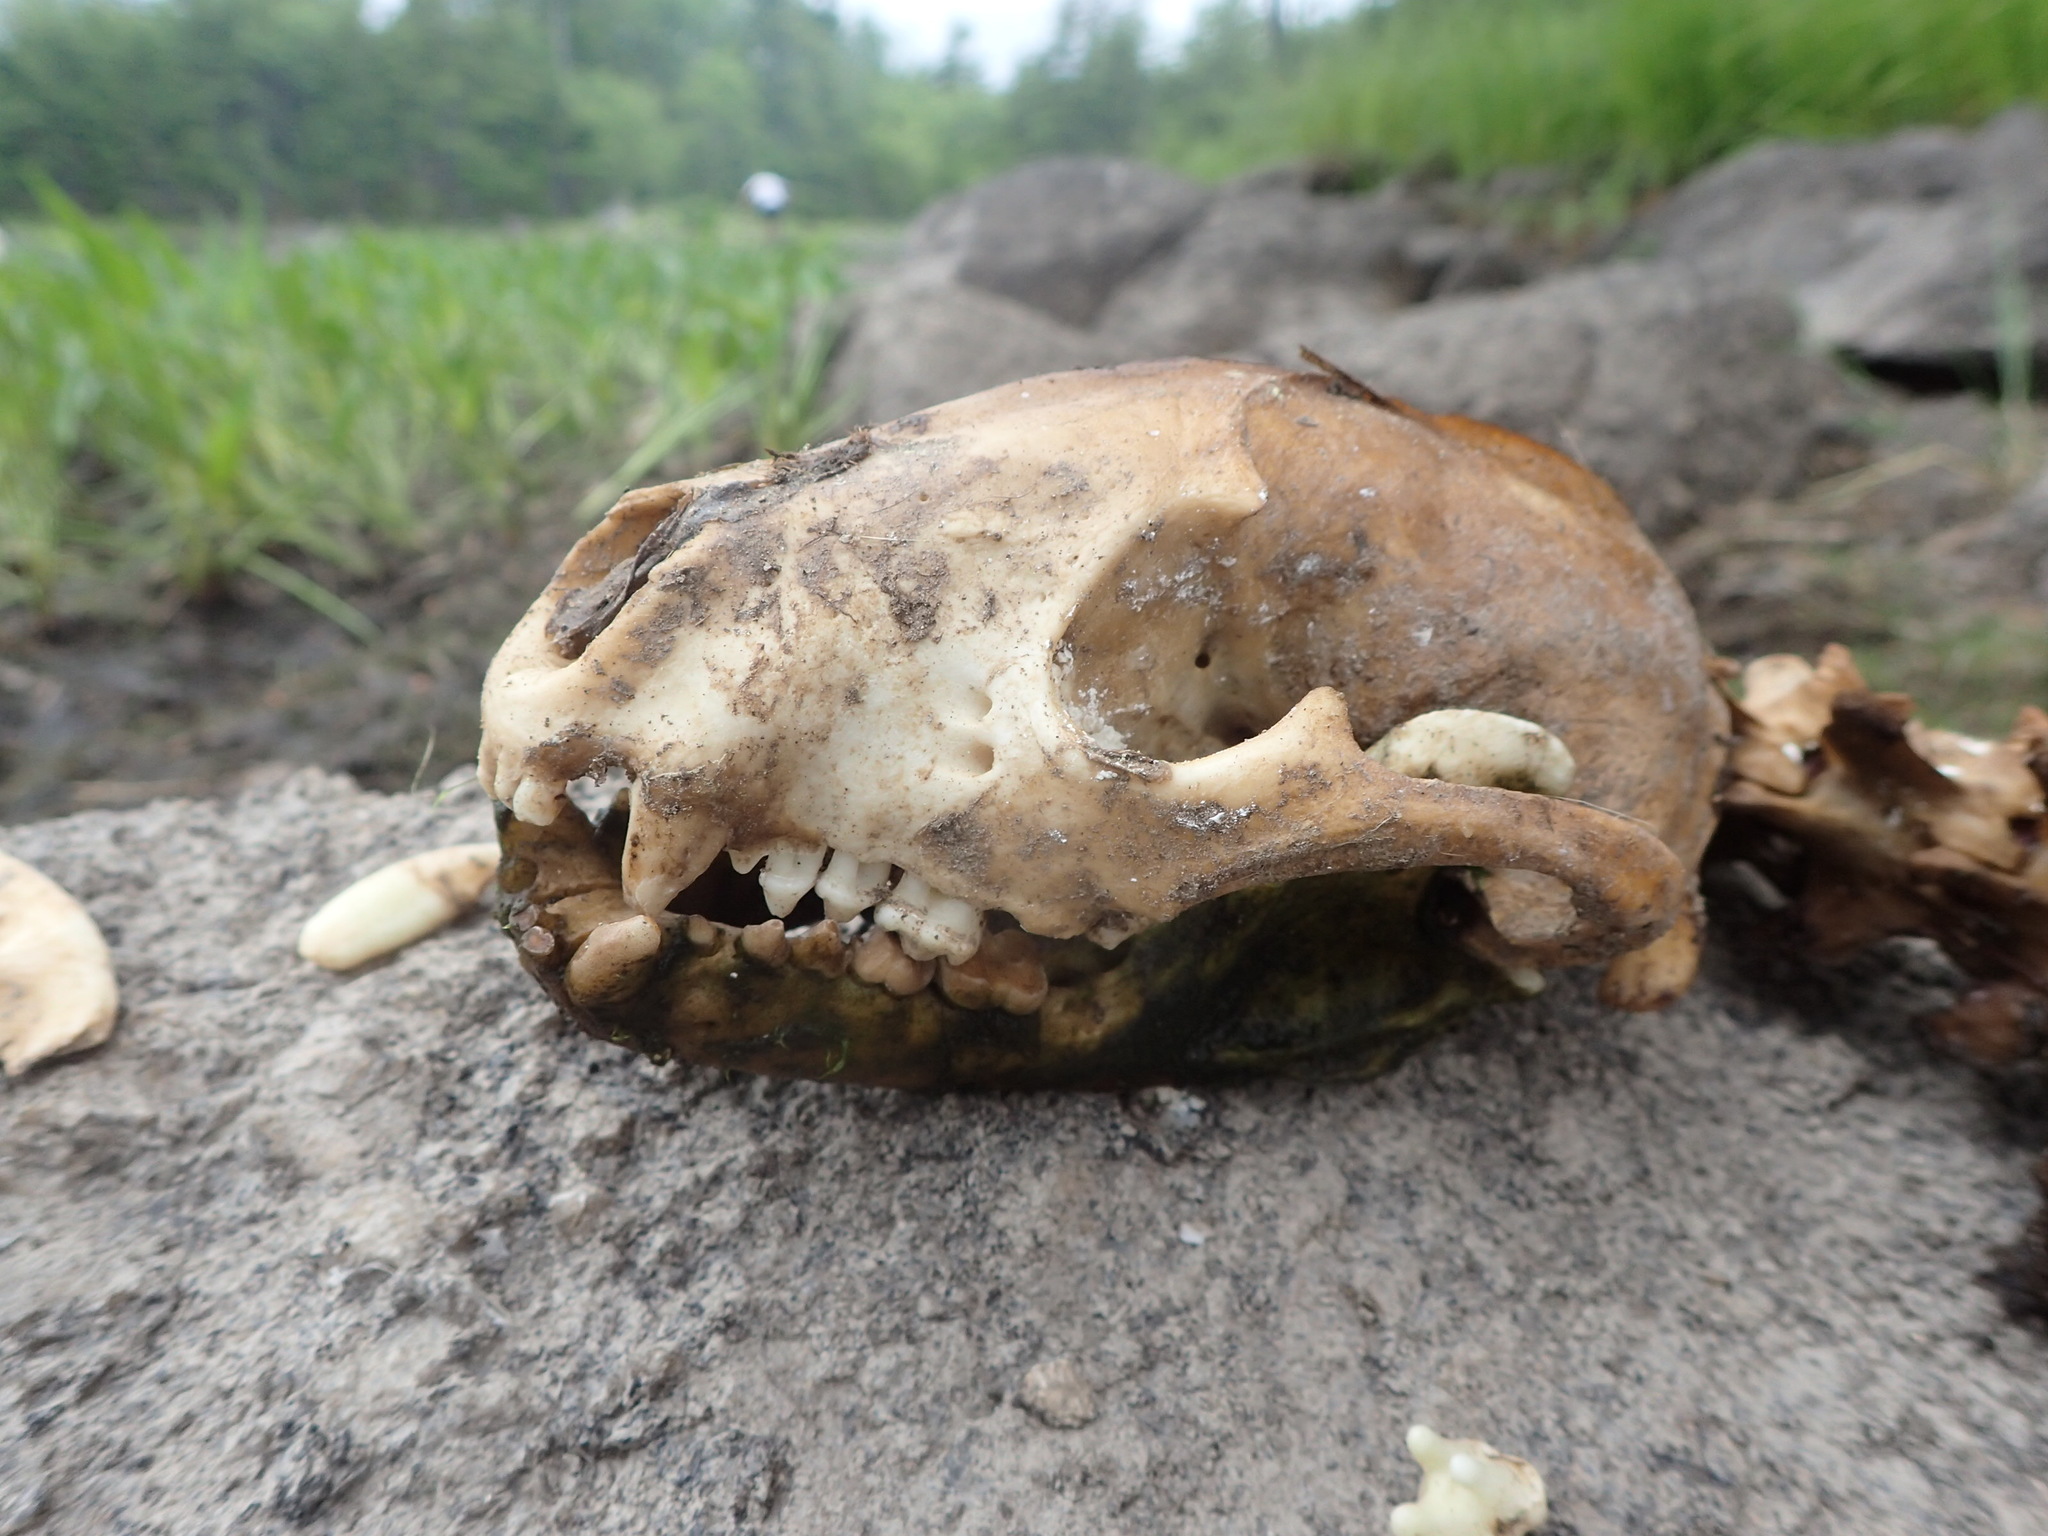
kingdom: Animalia
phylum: Chordata
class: Mammalia
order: Carnivora
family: Procyonidae
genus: Procyon
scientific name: Procyon lotor
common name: Raccoon
